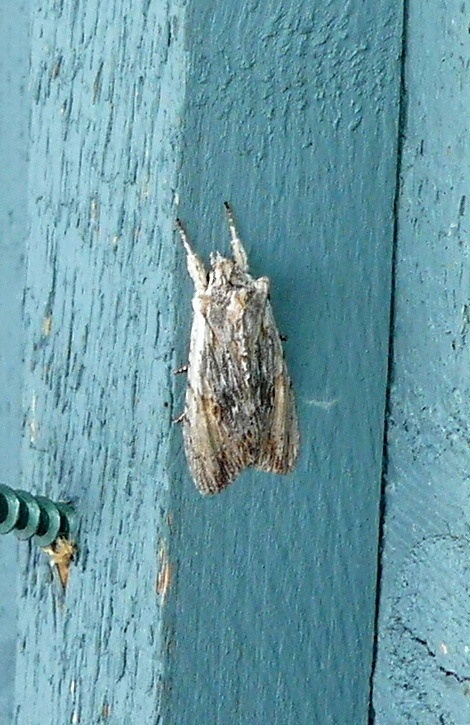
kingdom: Animalia
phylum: Arthropoda
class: Insecta
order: Lepidoptera
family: Noctuidae
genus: Lithophane
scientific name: Lithophane amanda
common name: Amanda's pinion moth
